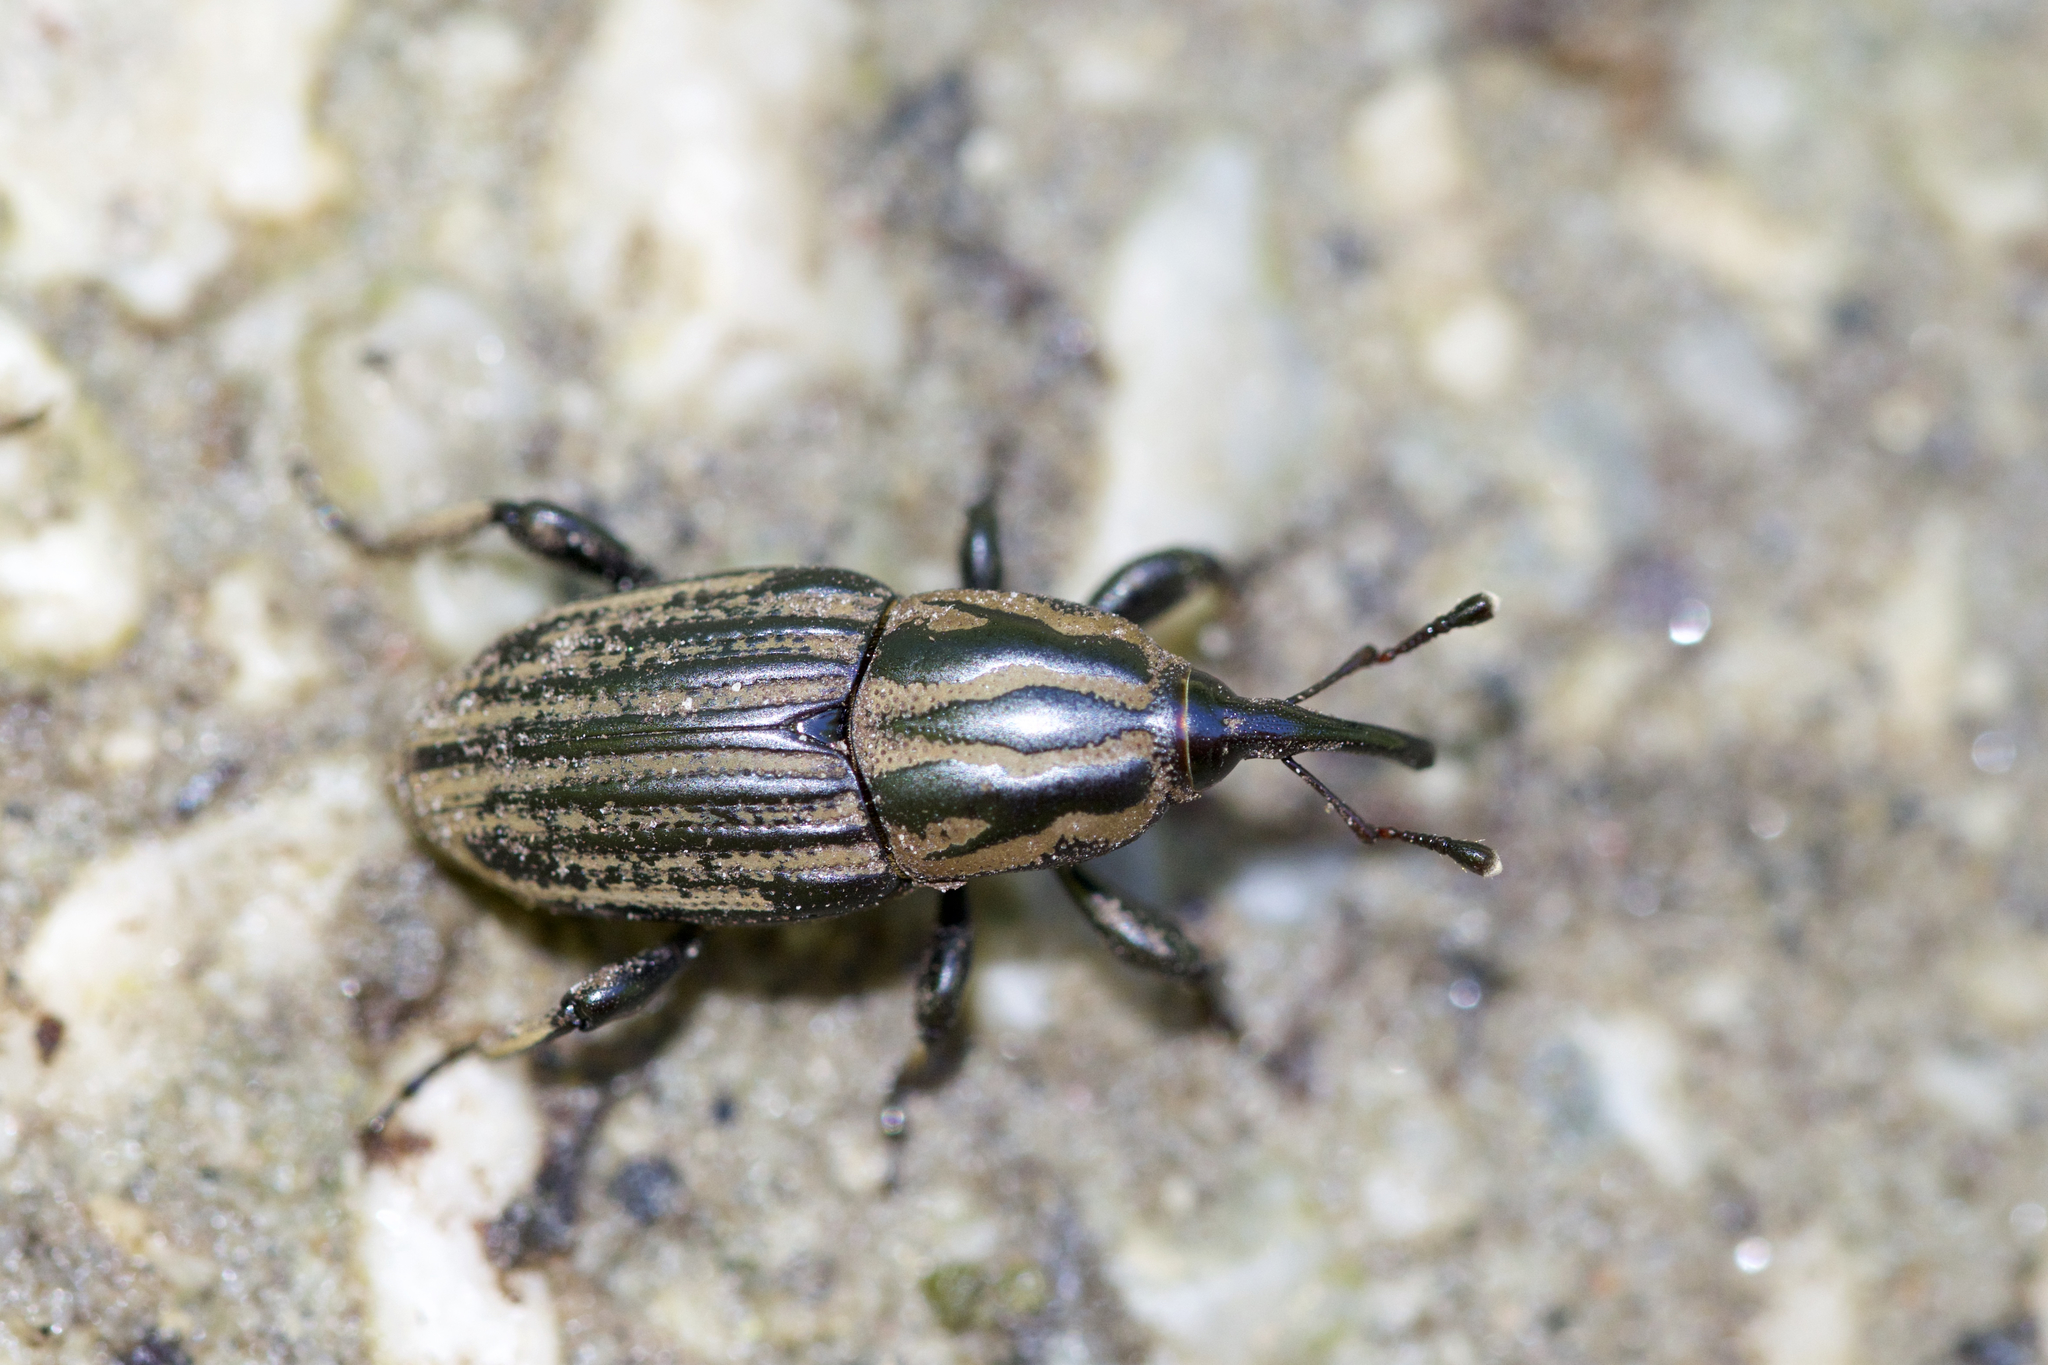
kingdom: Animalia
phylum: Arthropoda
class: Insecta
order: Coleoptera
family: Dryophthoridae
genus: Sphenophorus
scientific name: Sphenophorus australis
